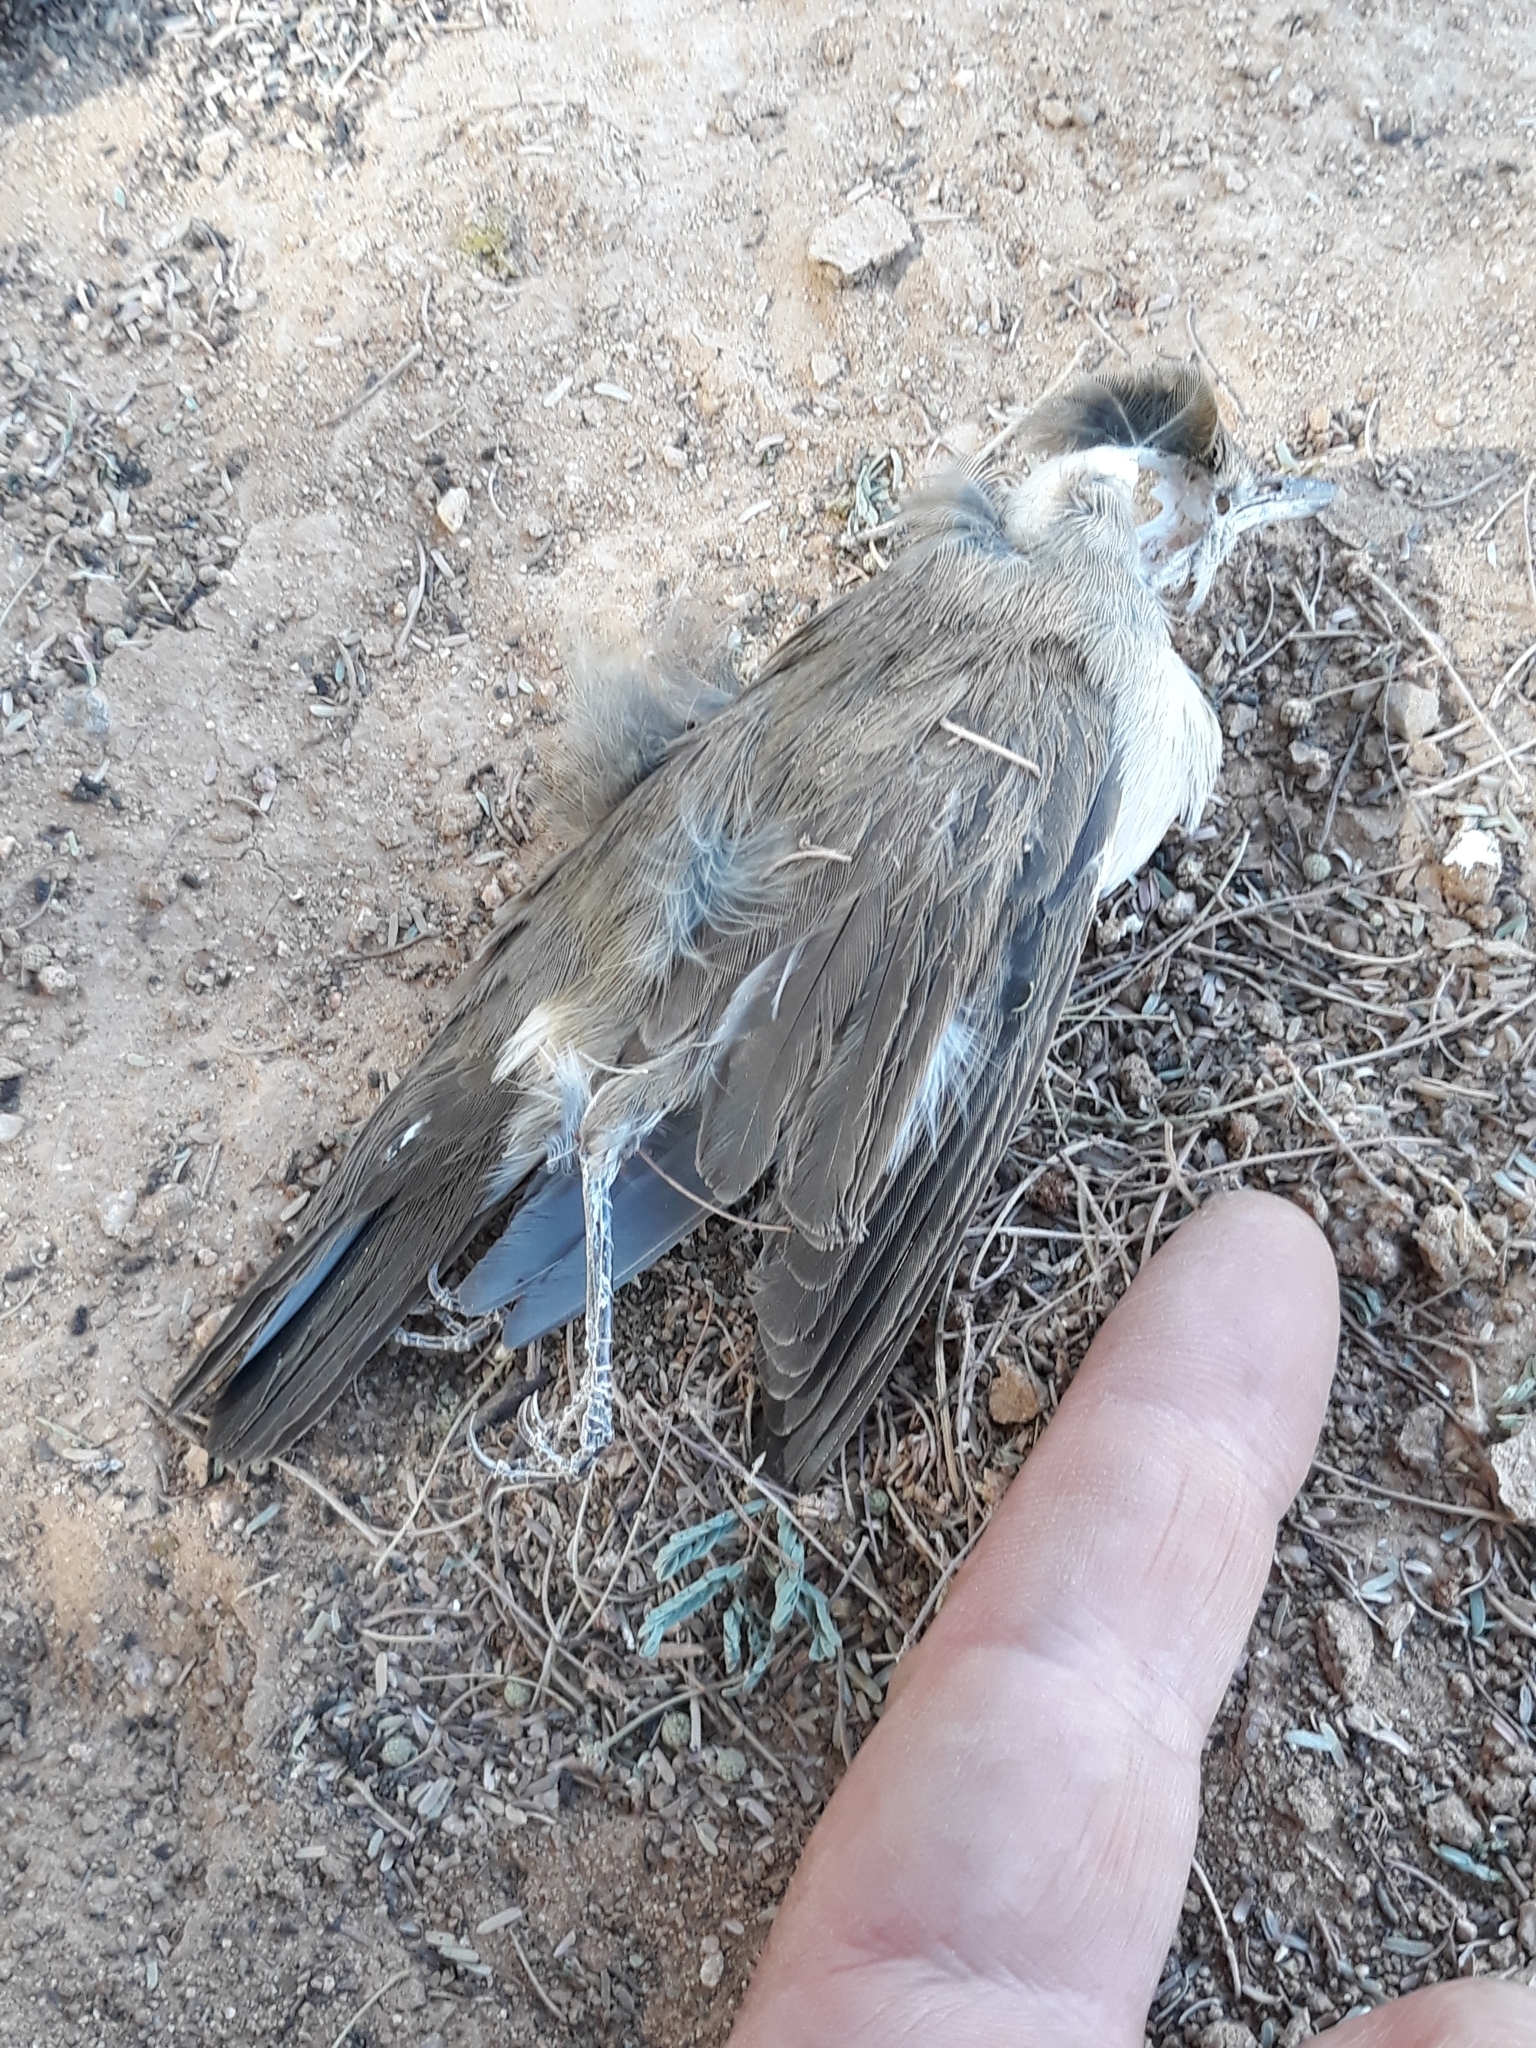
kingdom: Animalia
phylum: Chordata
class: Aves
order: Passeriformes
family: Sylviidae
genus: Sylvia
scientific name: Sylvia borin
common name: Garden warbler
